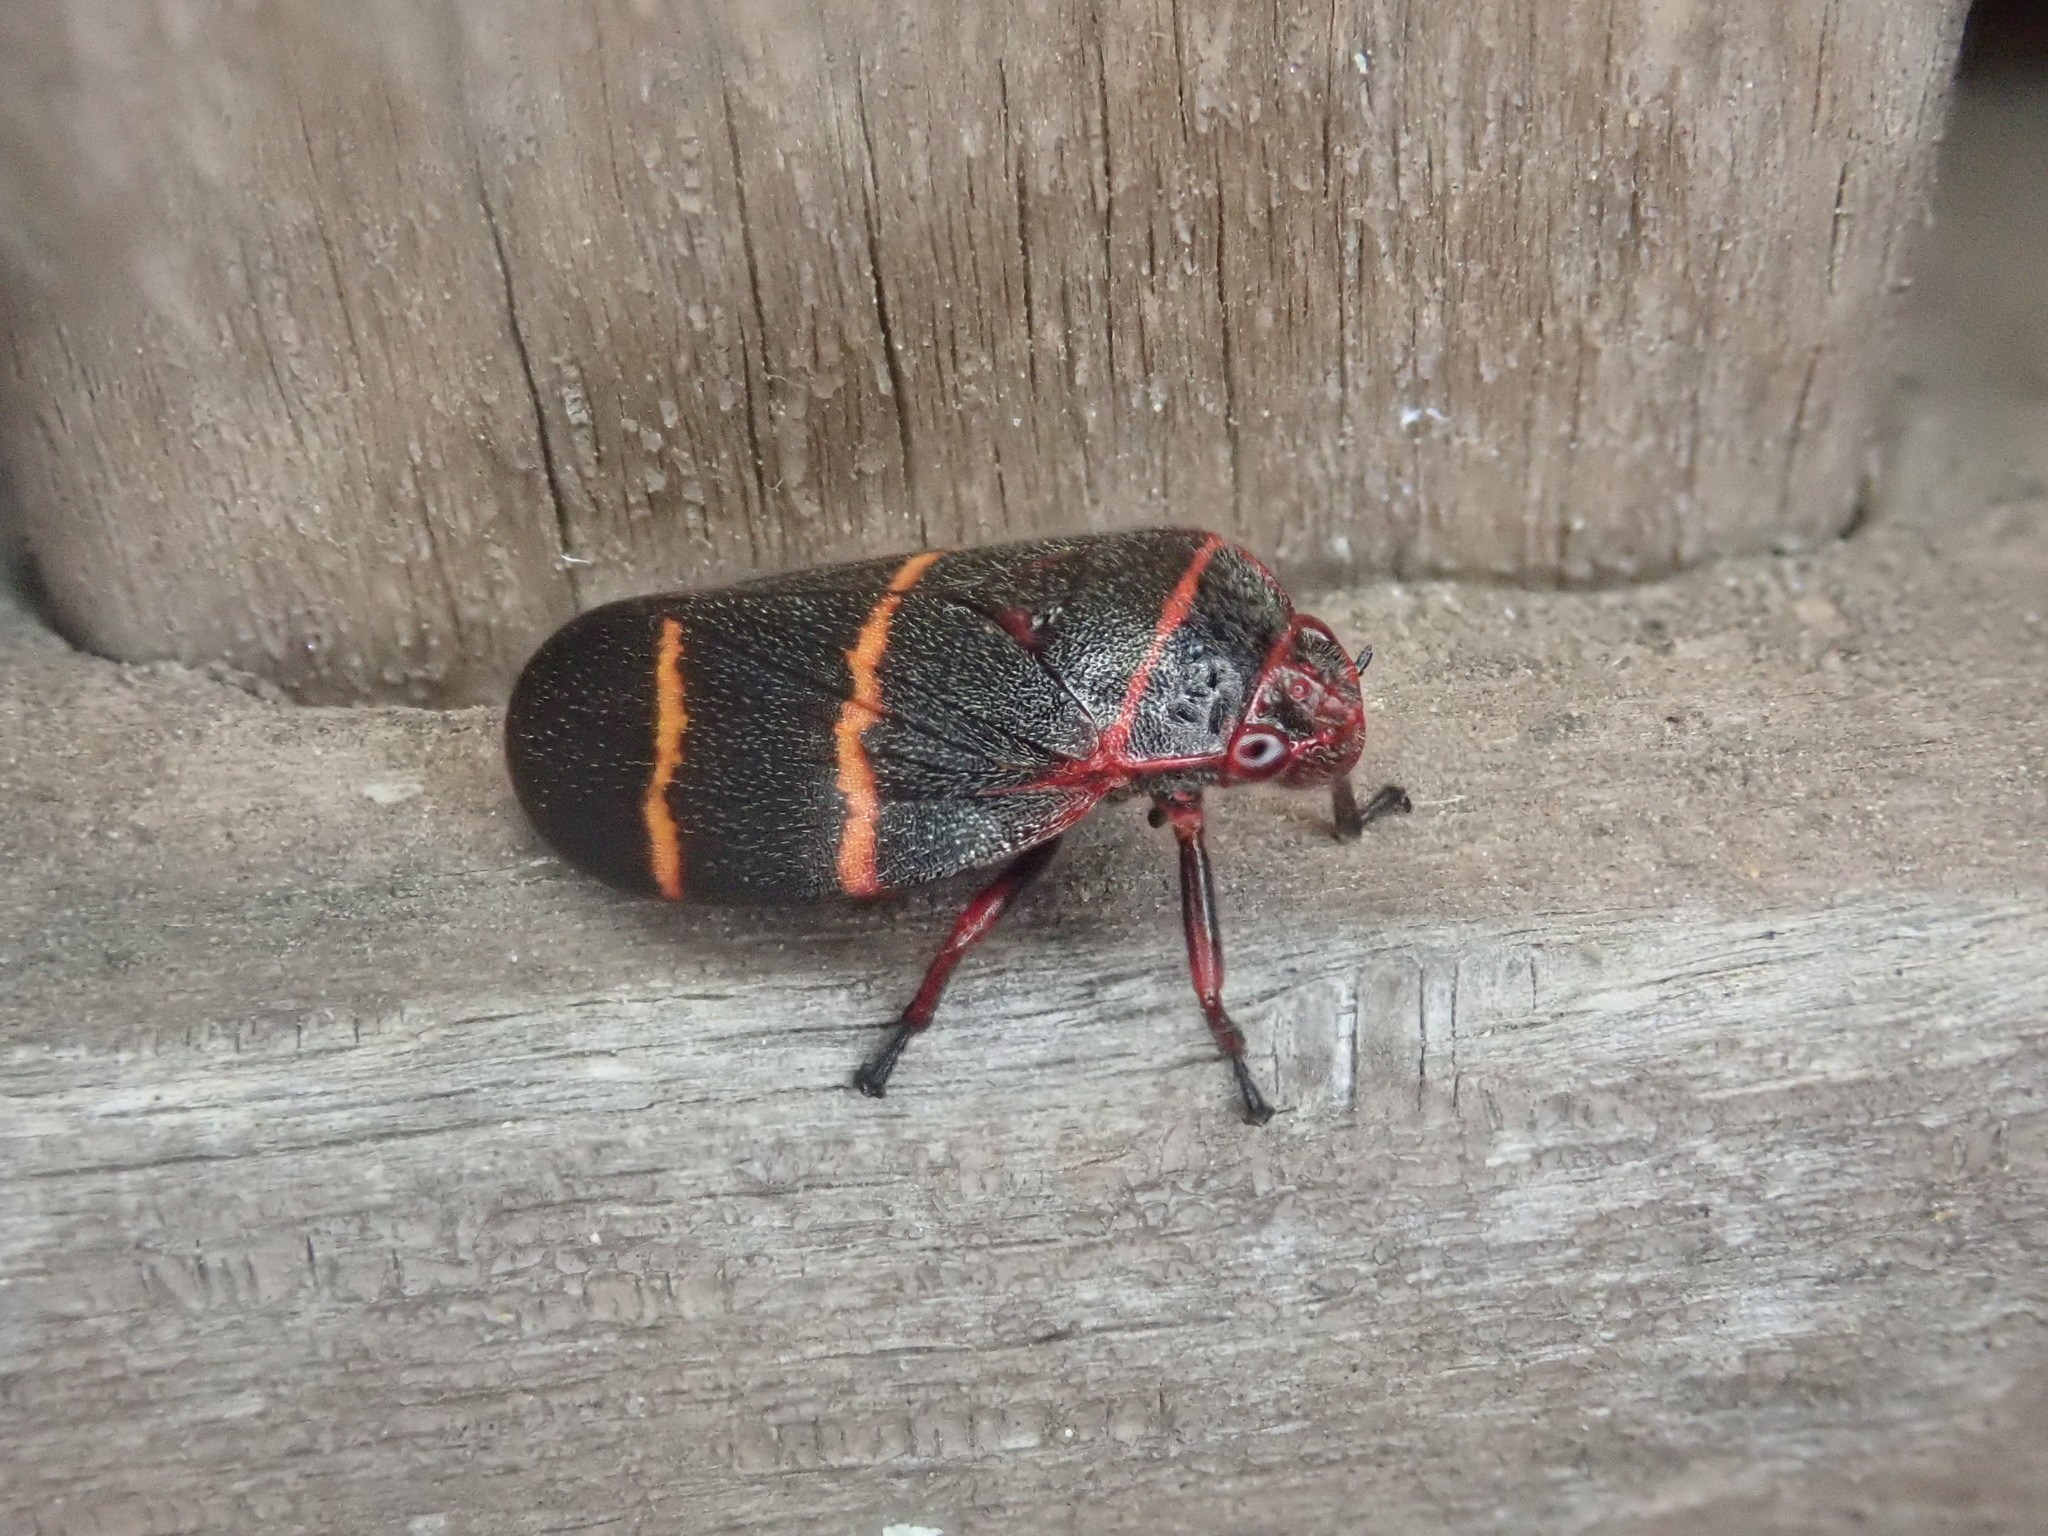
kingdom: Animalia
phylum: Arthropoda
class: Insecta
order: Hemiptera
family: Cercopidae
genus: Prosapia
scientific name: Prosapia bicincta
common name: Twolined spittlebug
